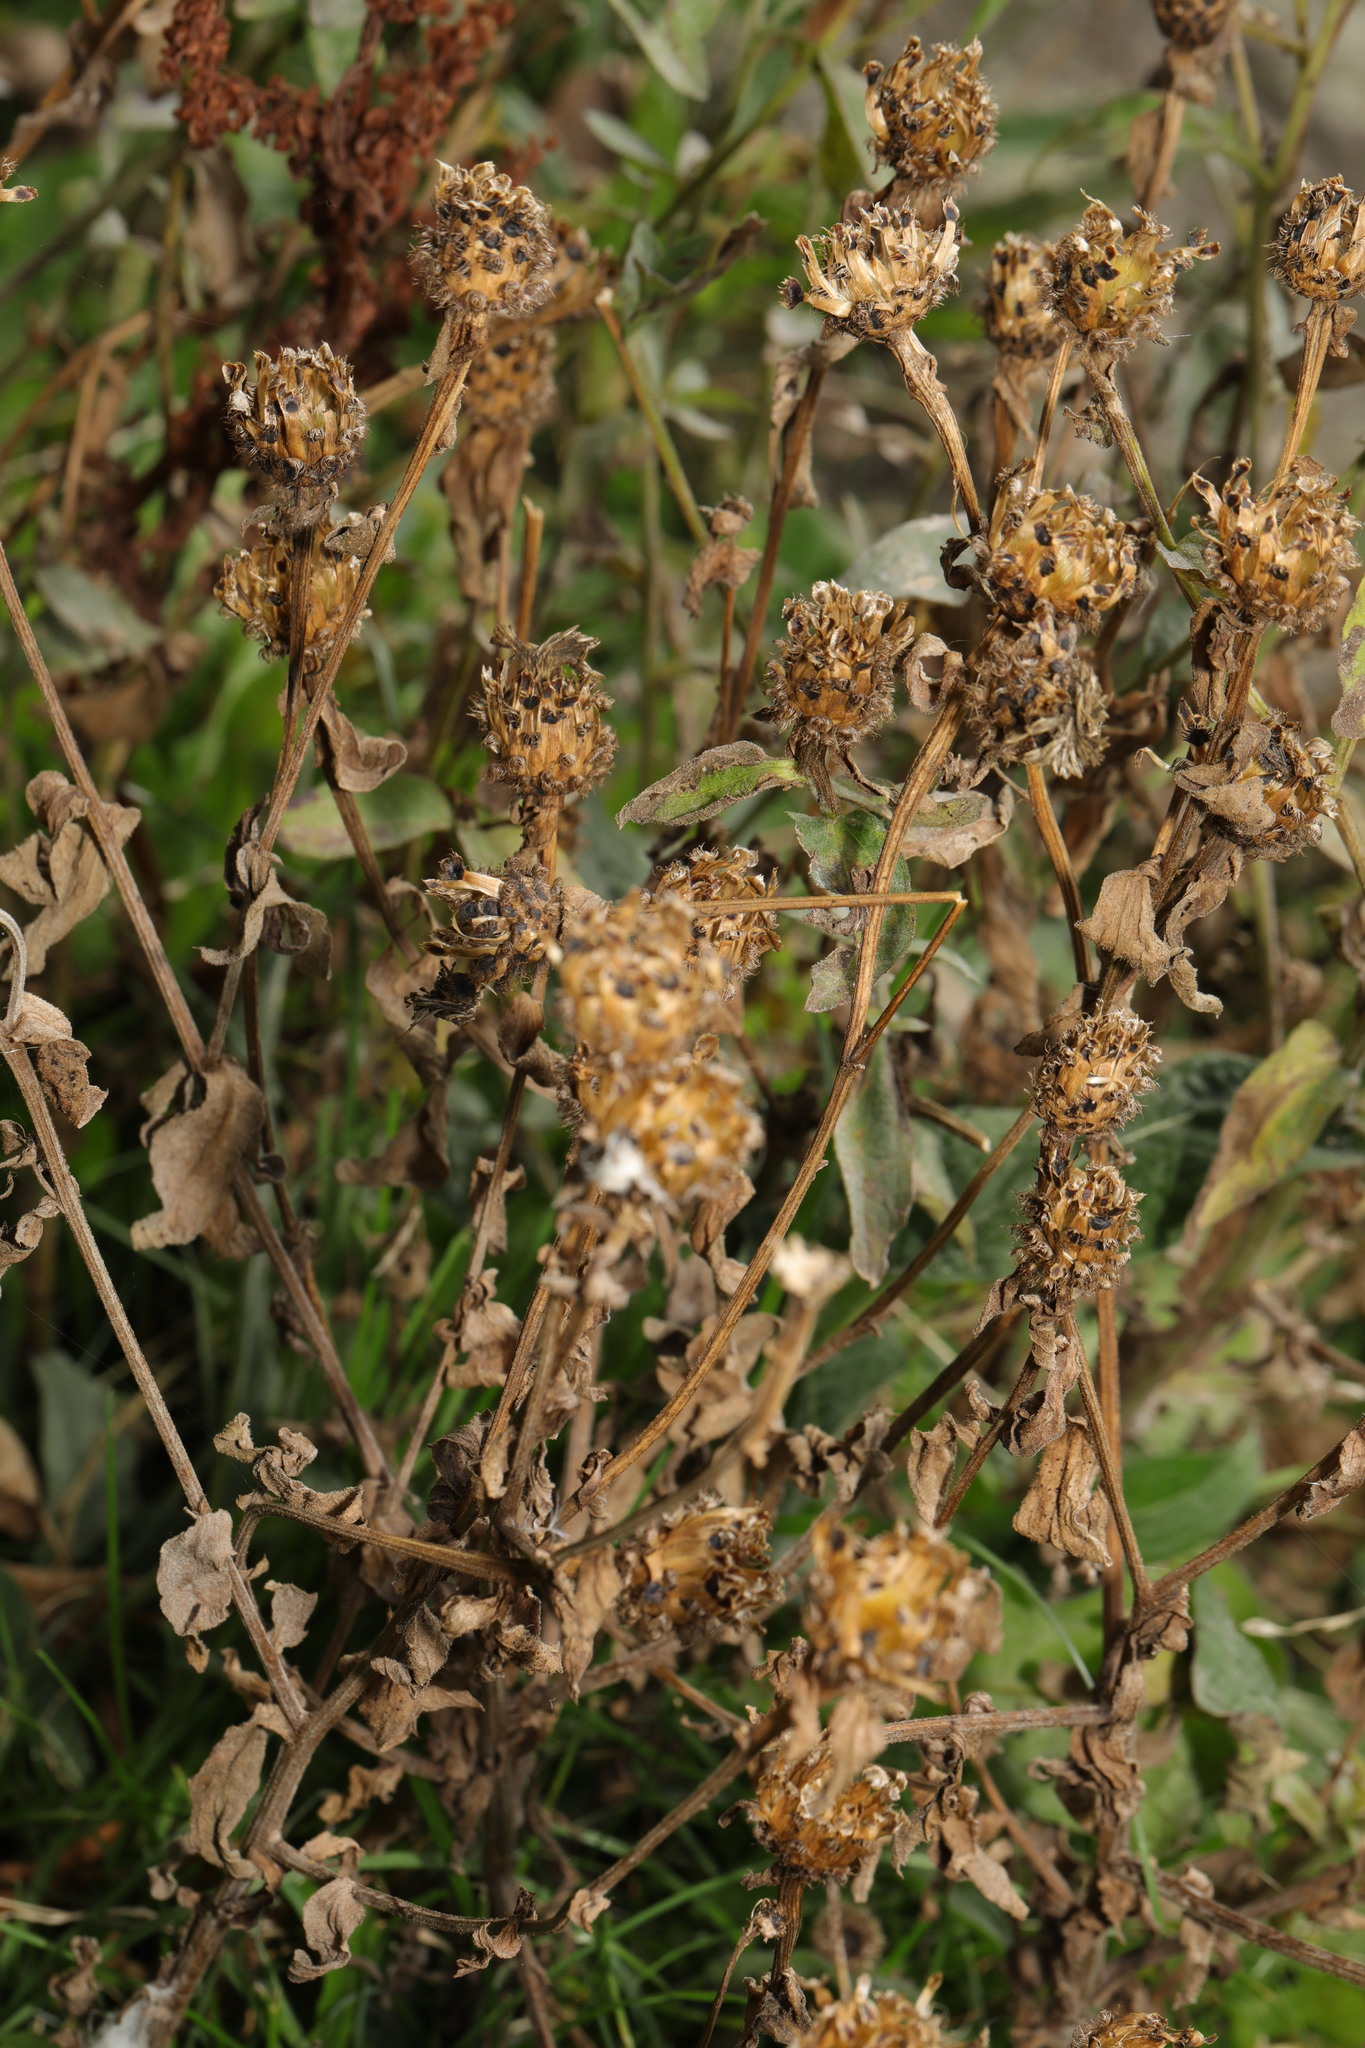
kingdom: Plantae
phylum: Tracheophyta
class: Magnoliopsida
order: Asterales
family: Asteraceae
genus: Centaurea
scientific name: Centaurea nigra
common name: Lesser knapweed
